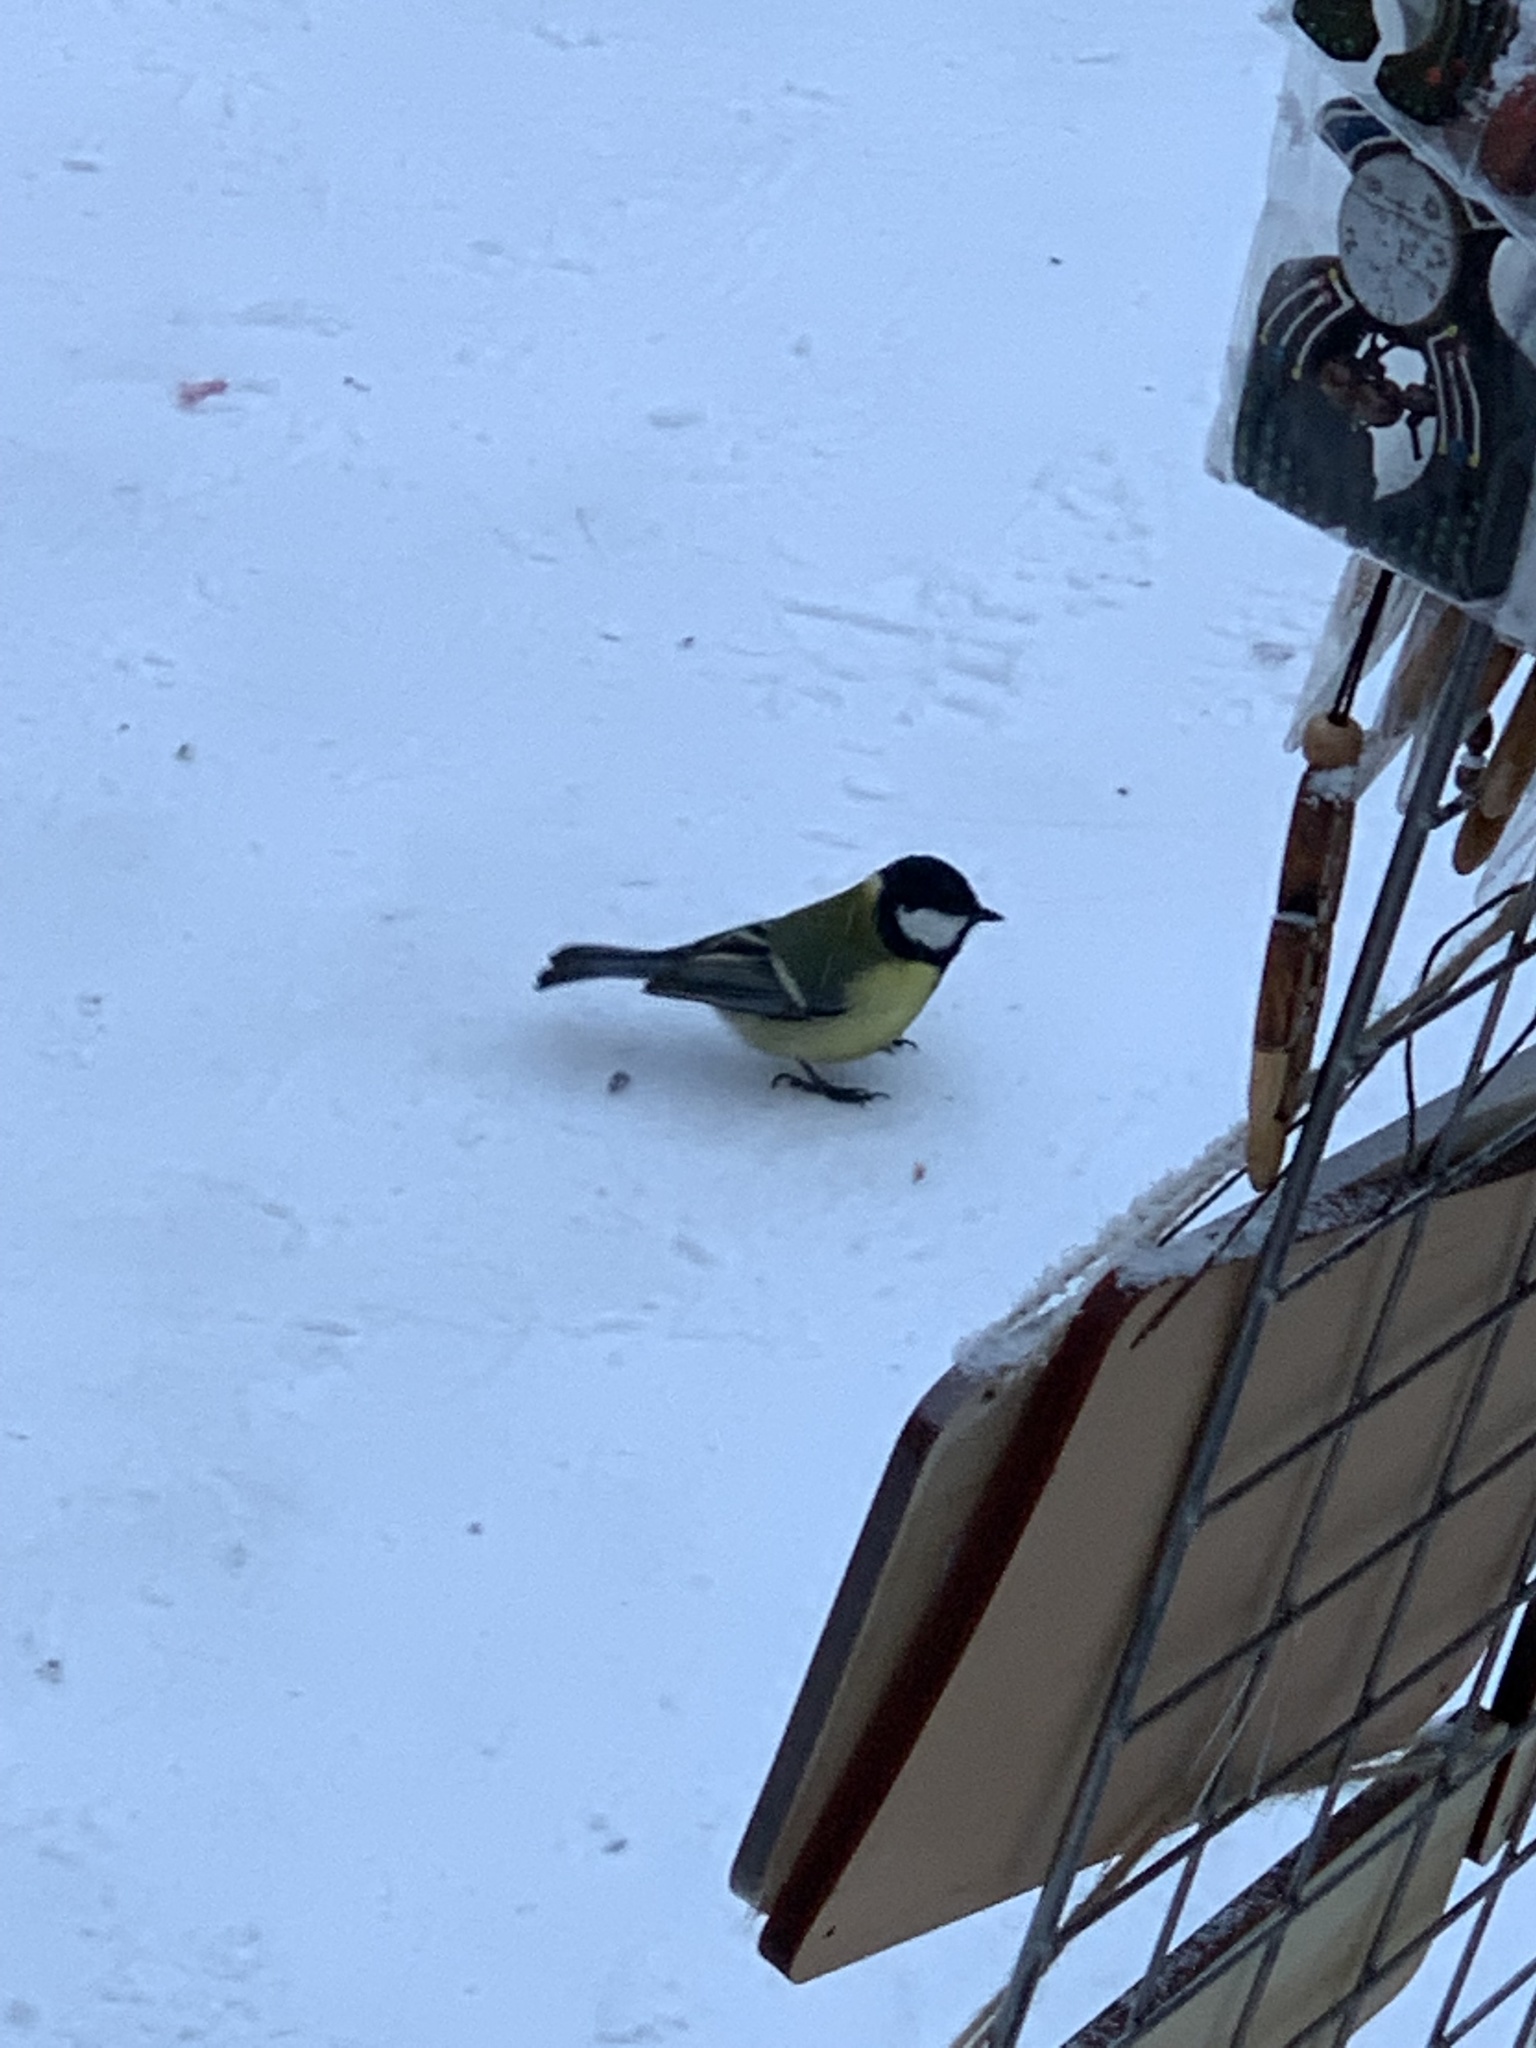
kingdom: Animalia
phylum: Chordata
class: Aves
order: Passeriformes
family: Paridae
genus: Parus
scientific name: Parus major
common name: Great tit
